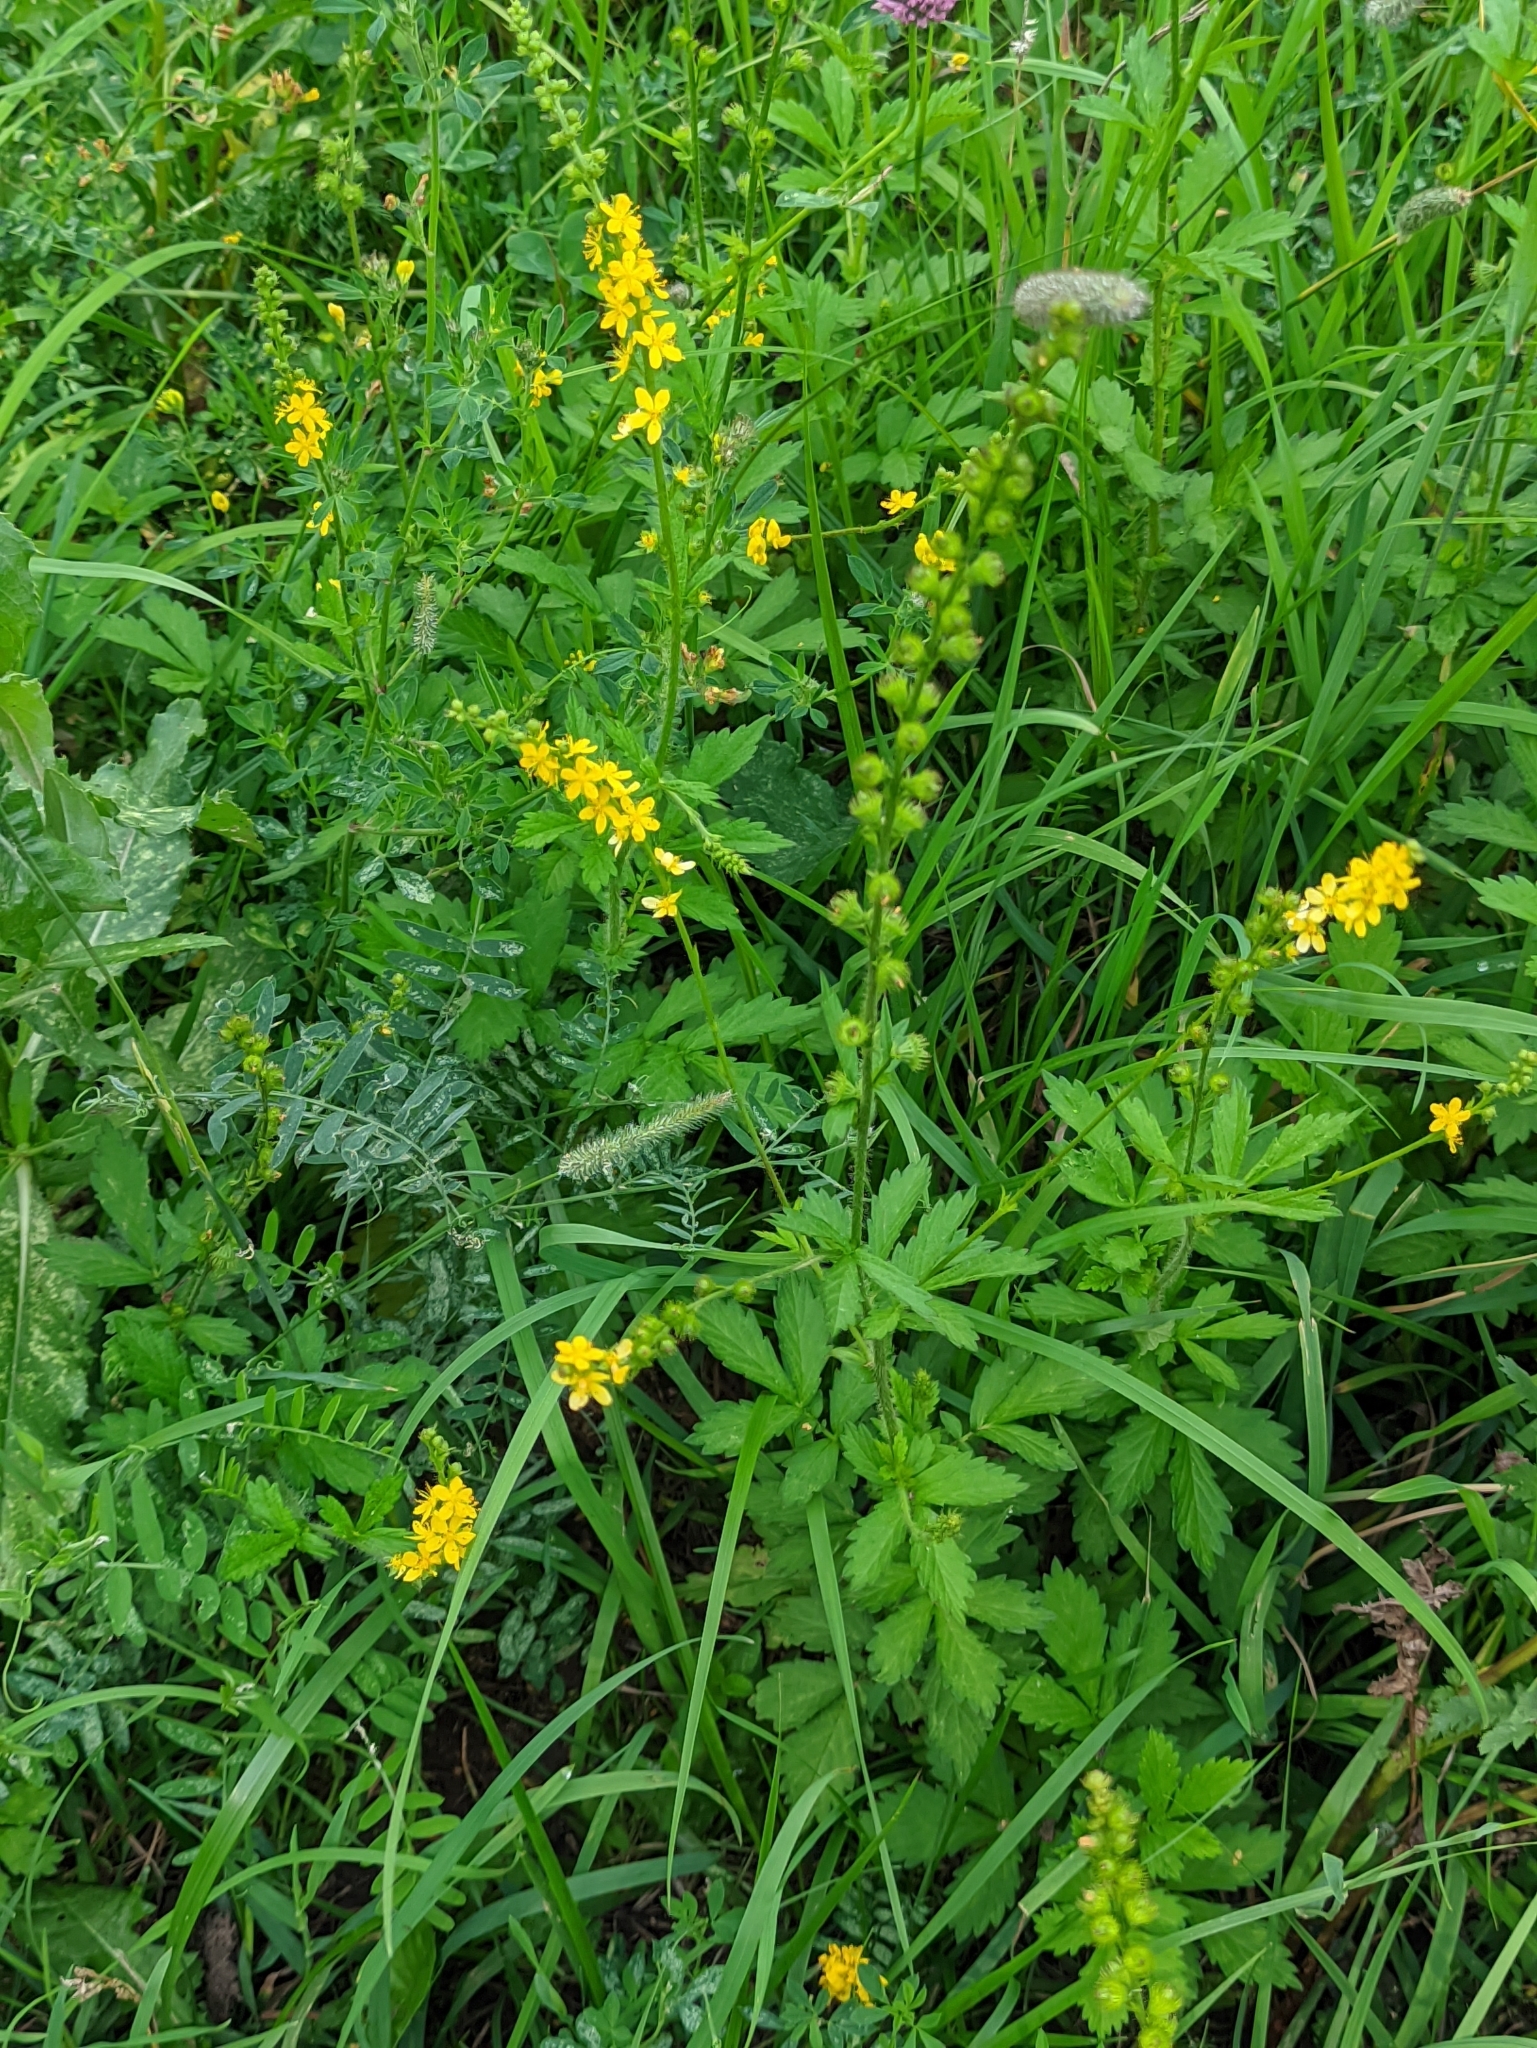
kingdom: Plantae
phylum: Tracheophyta
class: Magnoliopsida
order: Rosales
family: Rosaceae
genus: Agrimonia
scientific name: Agrimonia pilosa
